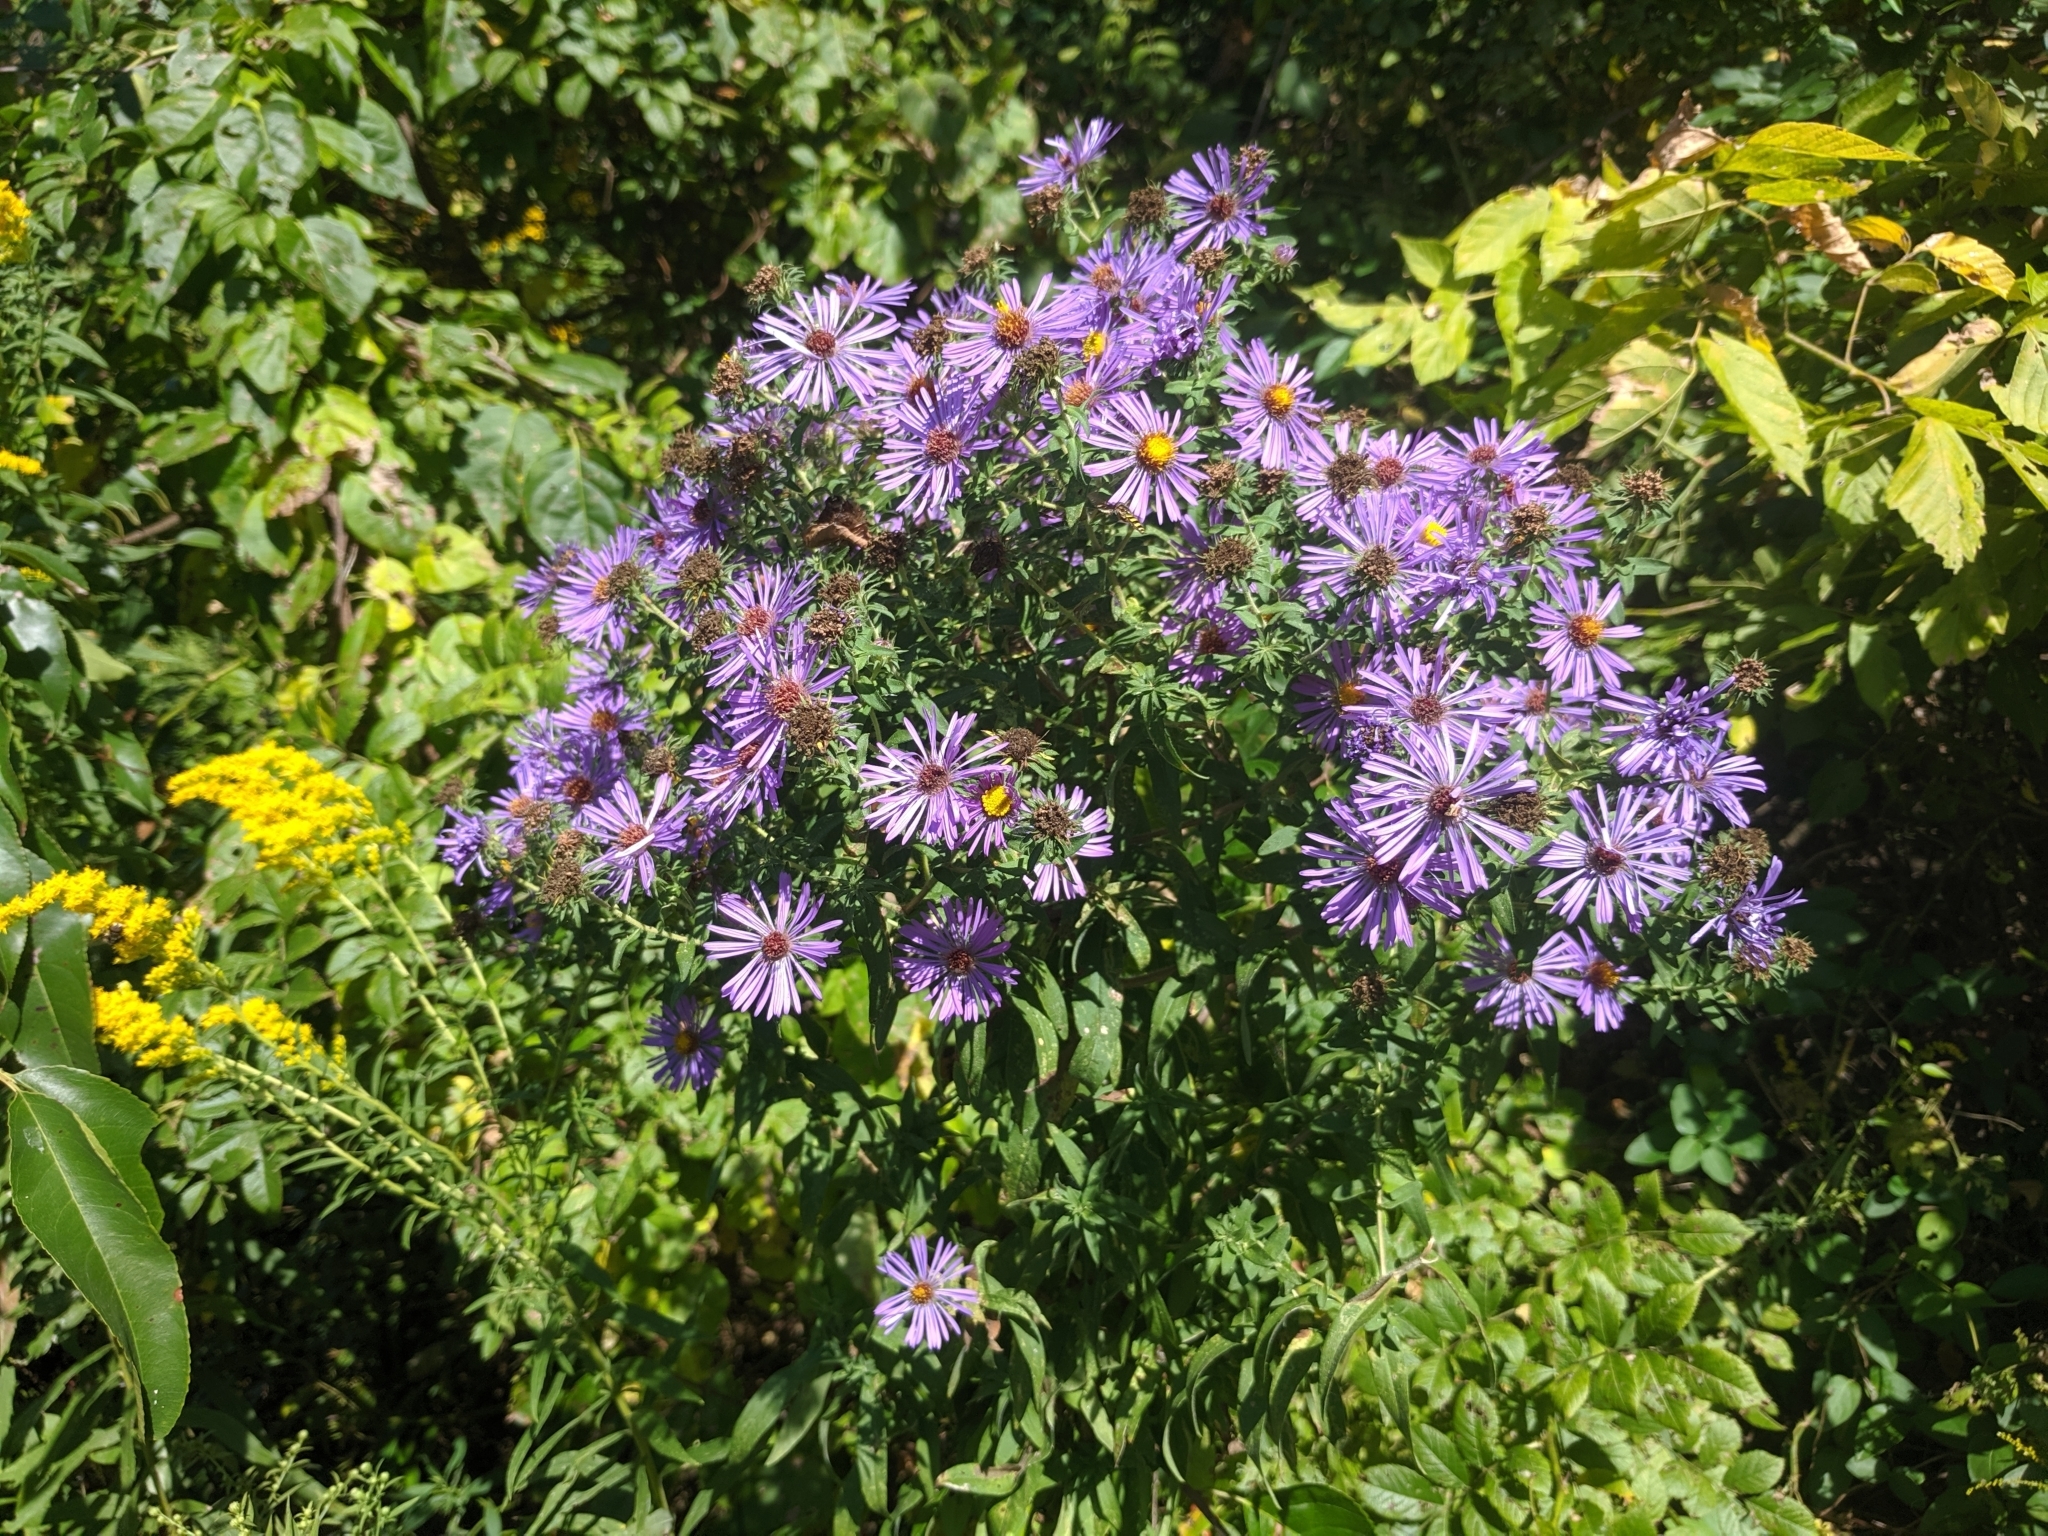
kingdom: Plantae
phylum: Tracheophyta
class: Magnoliopsida
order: Asterales
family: Asteraceae
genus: Symphyotrichum
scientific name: Symphyotrichum novae-angliae
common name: Michaelmas daisy
